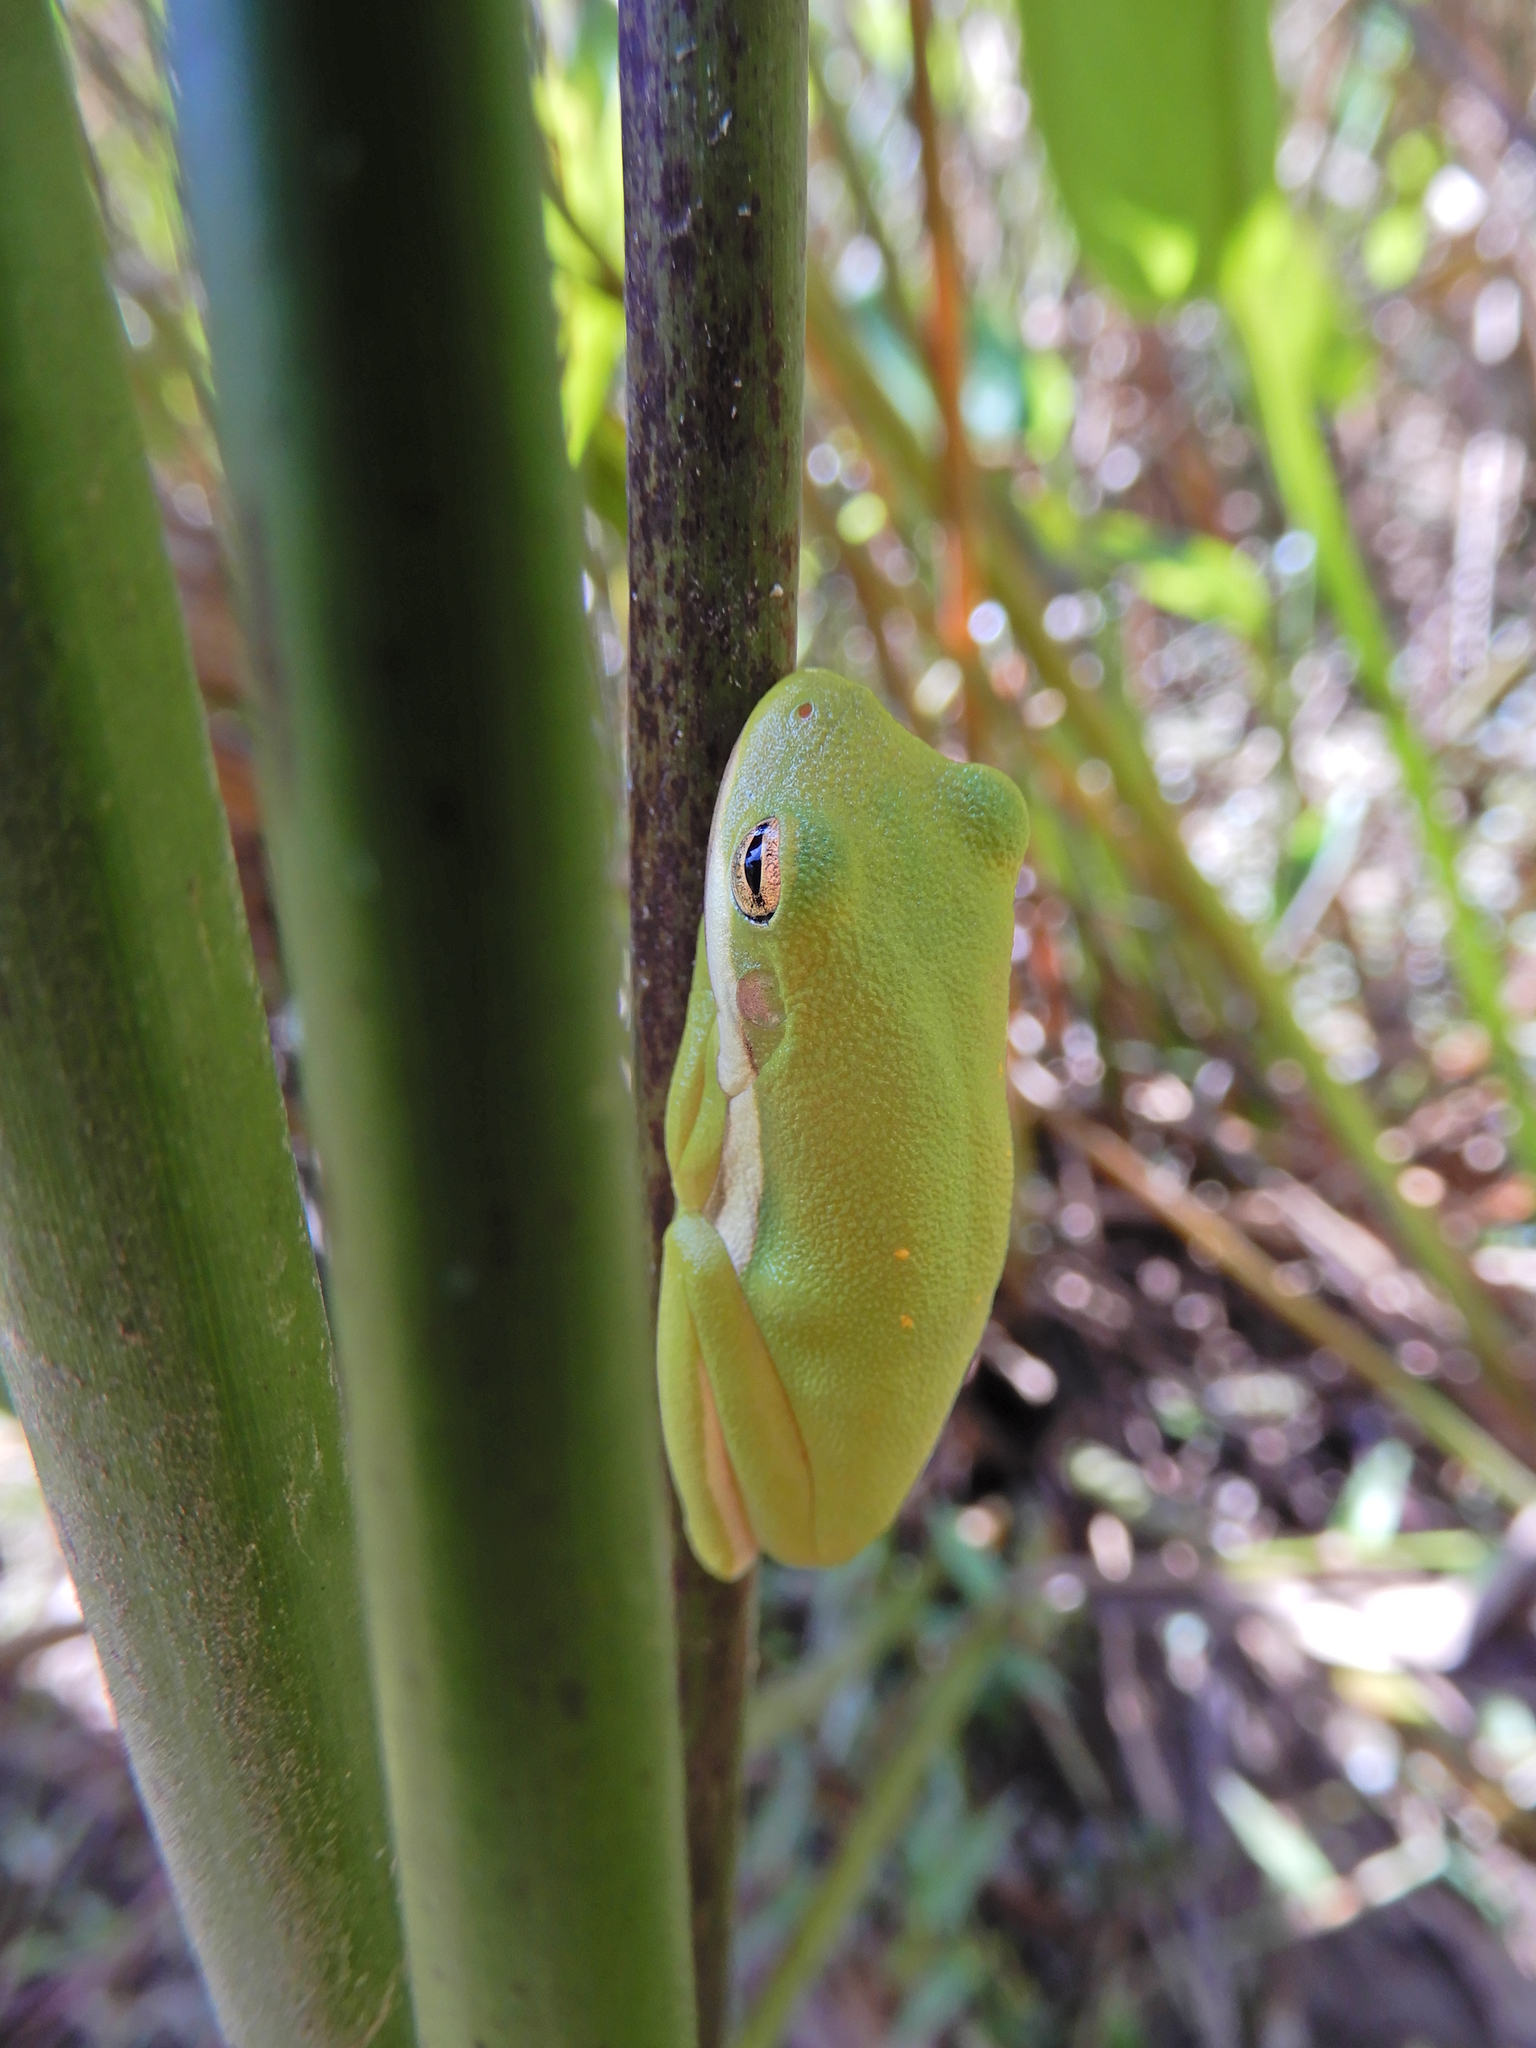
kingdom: Animalia
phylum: Chordata
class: Amphibia
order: Anura
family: Hylidae
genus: Dryophytes
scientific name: Dryophytes cinereus
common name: Green treefrog
